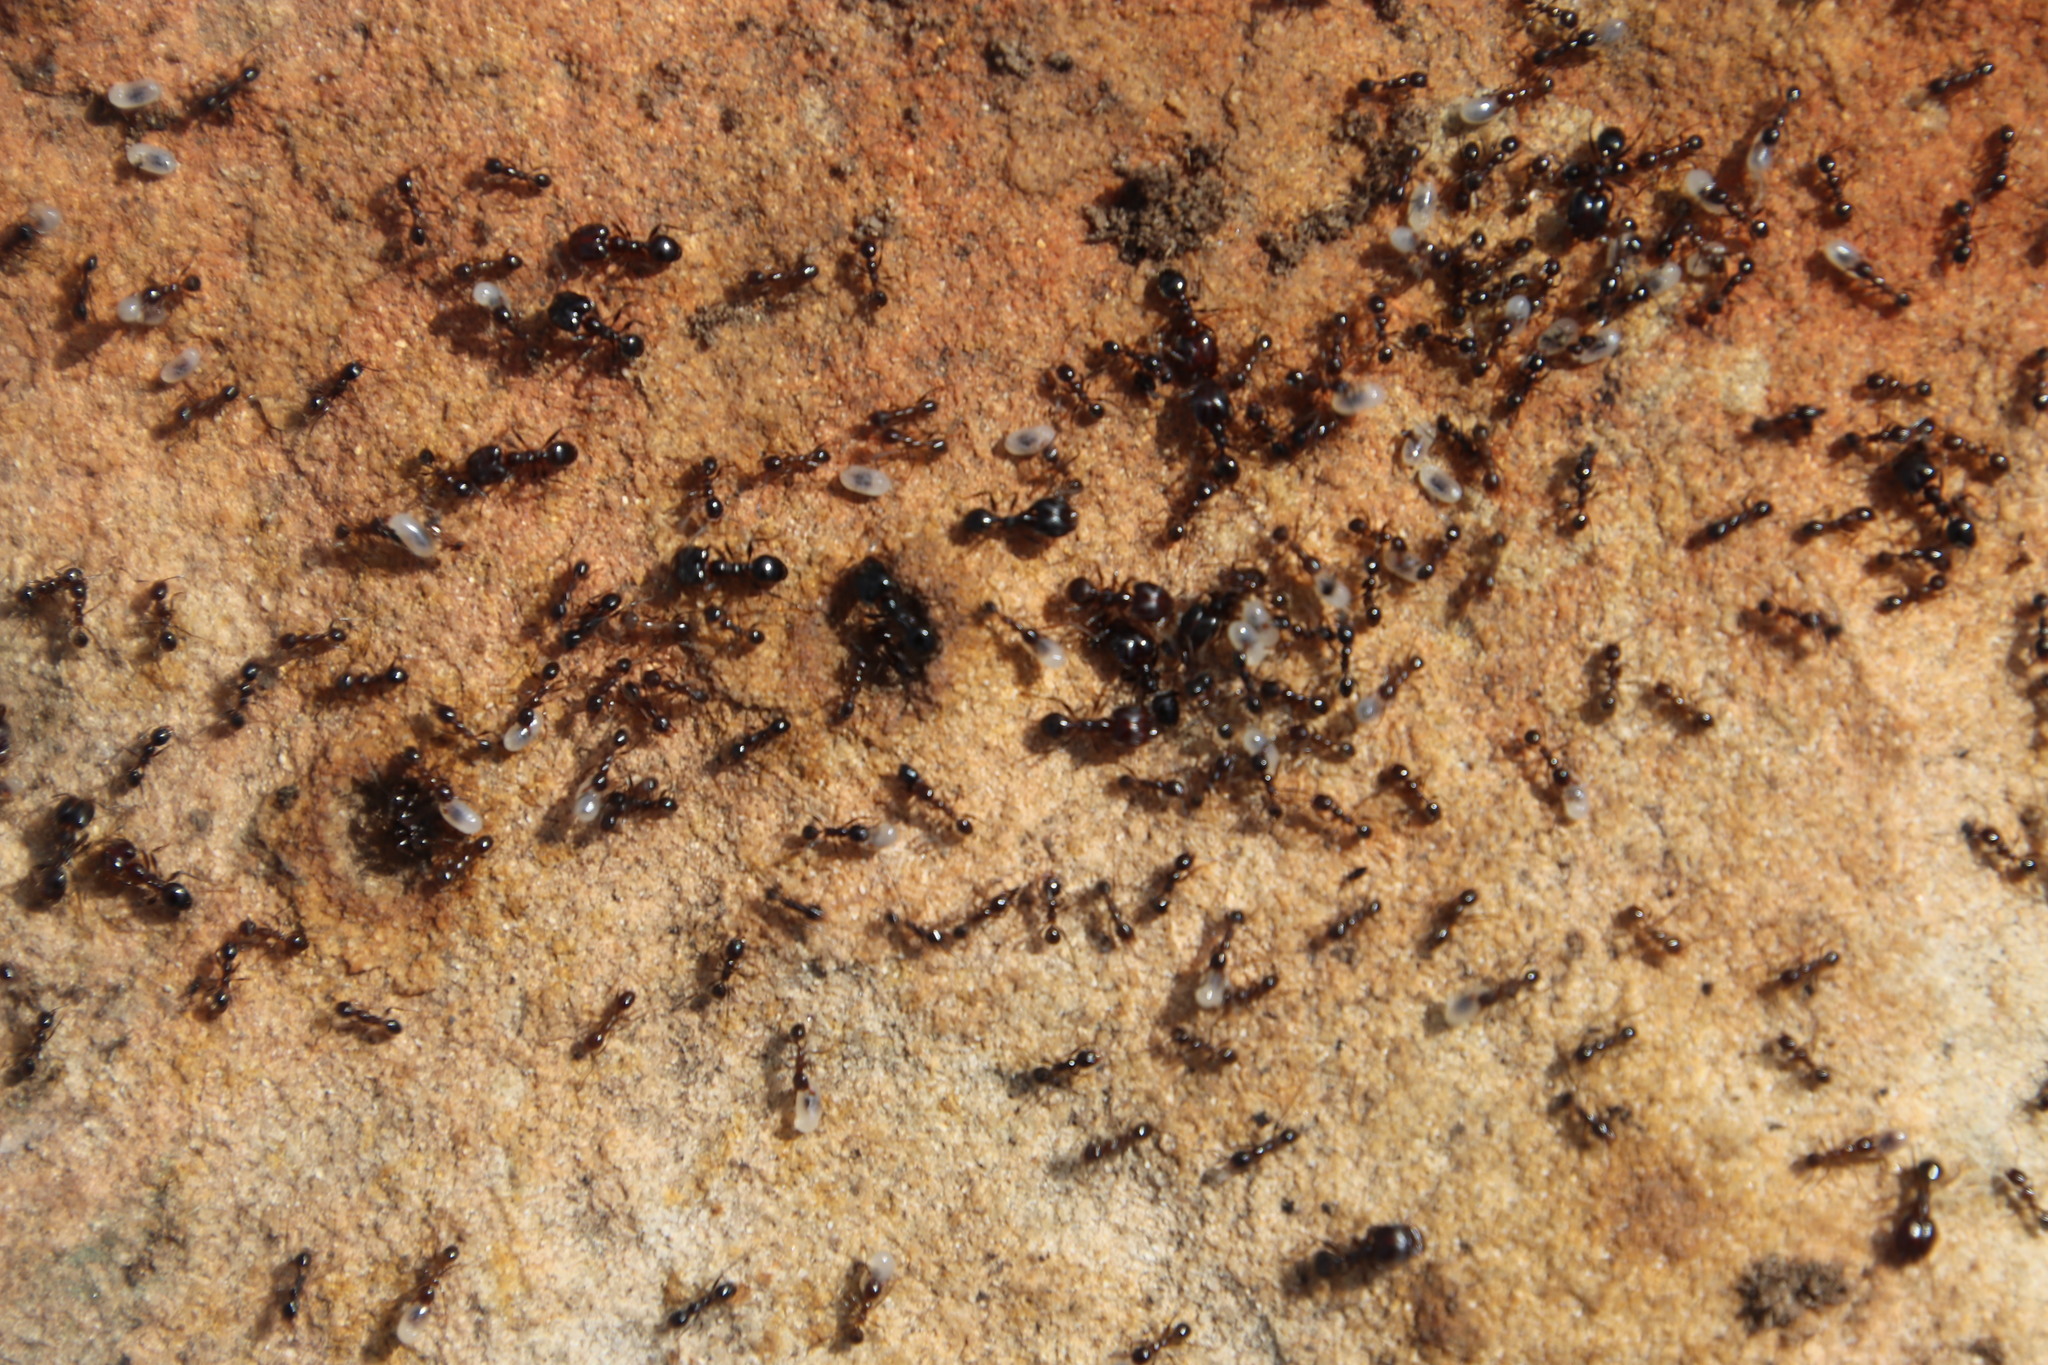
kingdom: Animalia
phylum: Arthropoda
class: Insecta
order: Hymenoptera
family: Formicidae
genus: Lepisiota
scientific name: Lepisiota capensis
